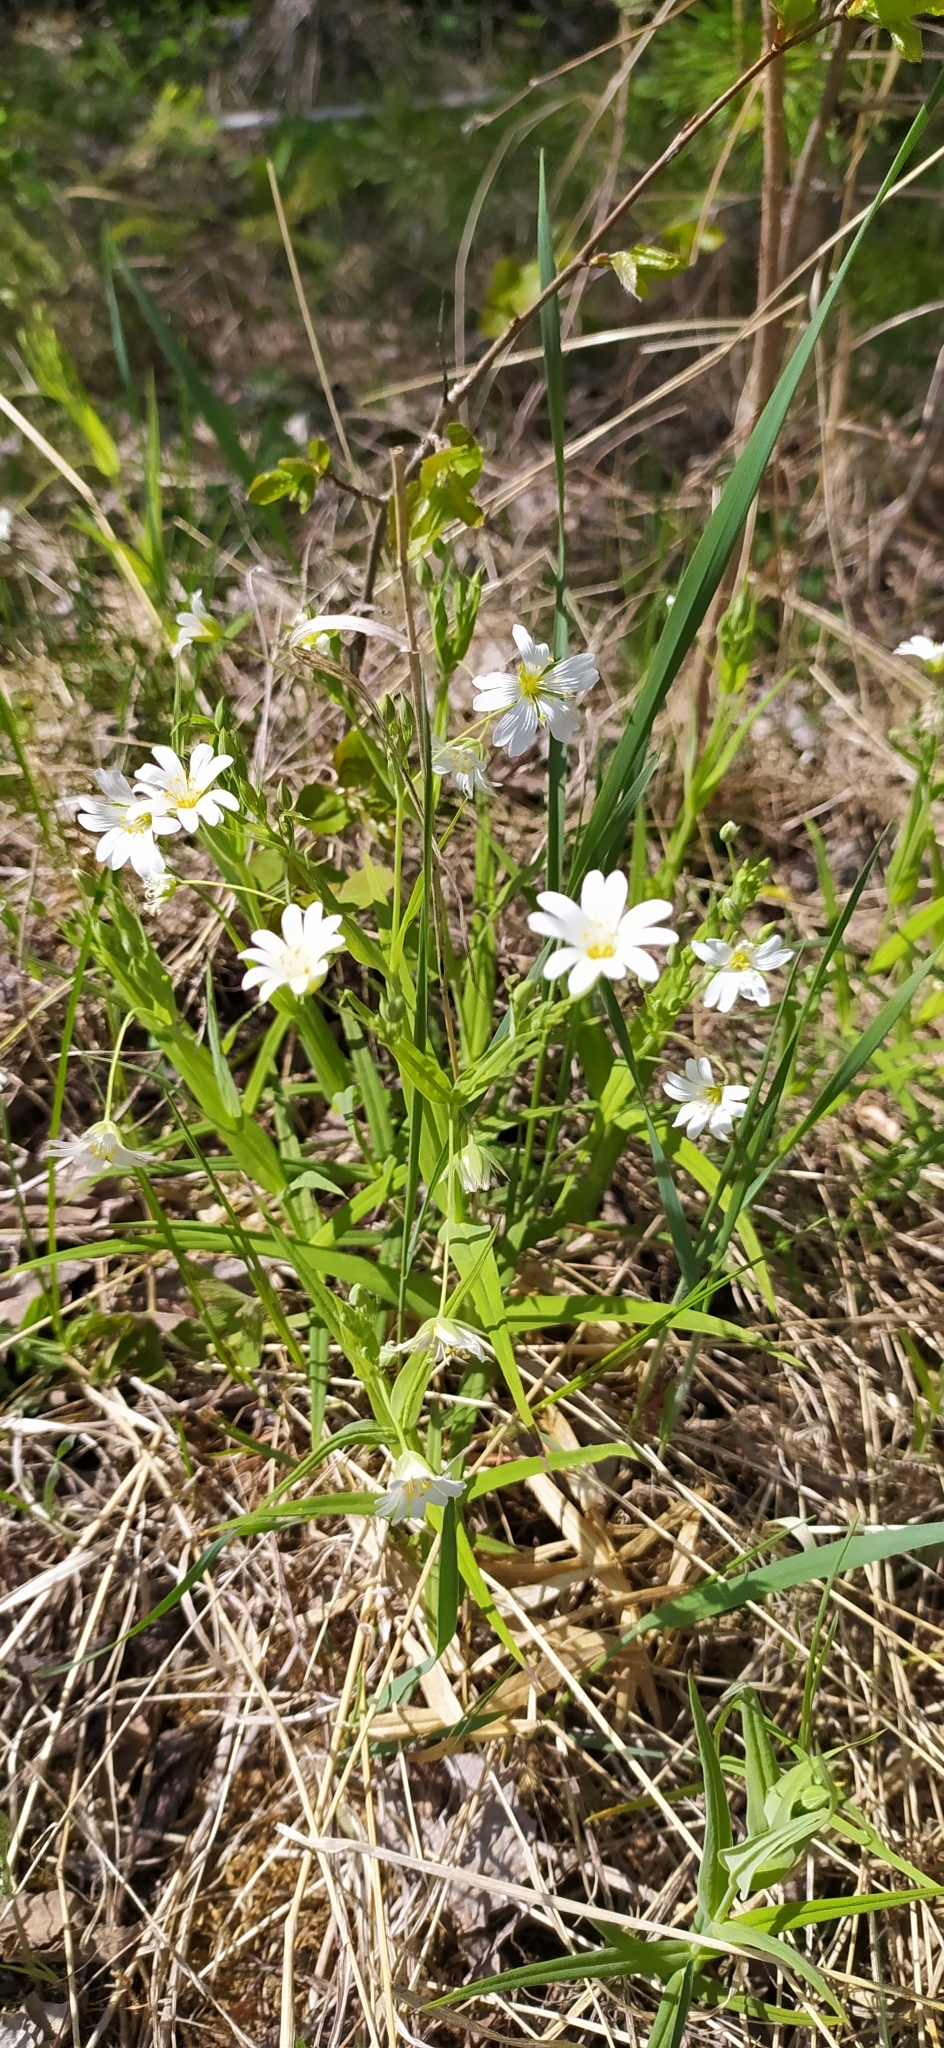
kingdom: Plantae
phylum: Tracheophyta
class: Magnoliopsida
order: Caryophyllales
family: Caryophyllaceae
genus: Rabelera
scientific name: Rabelera holostea
